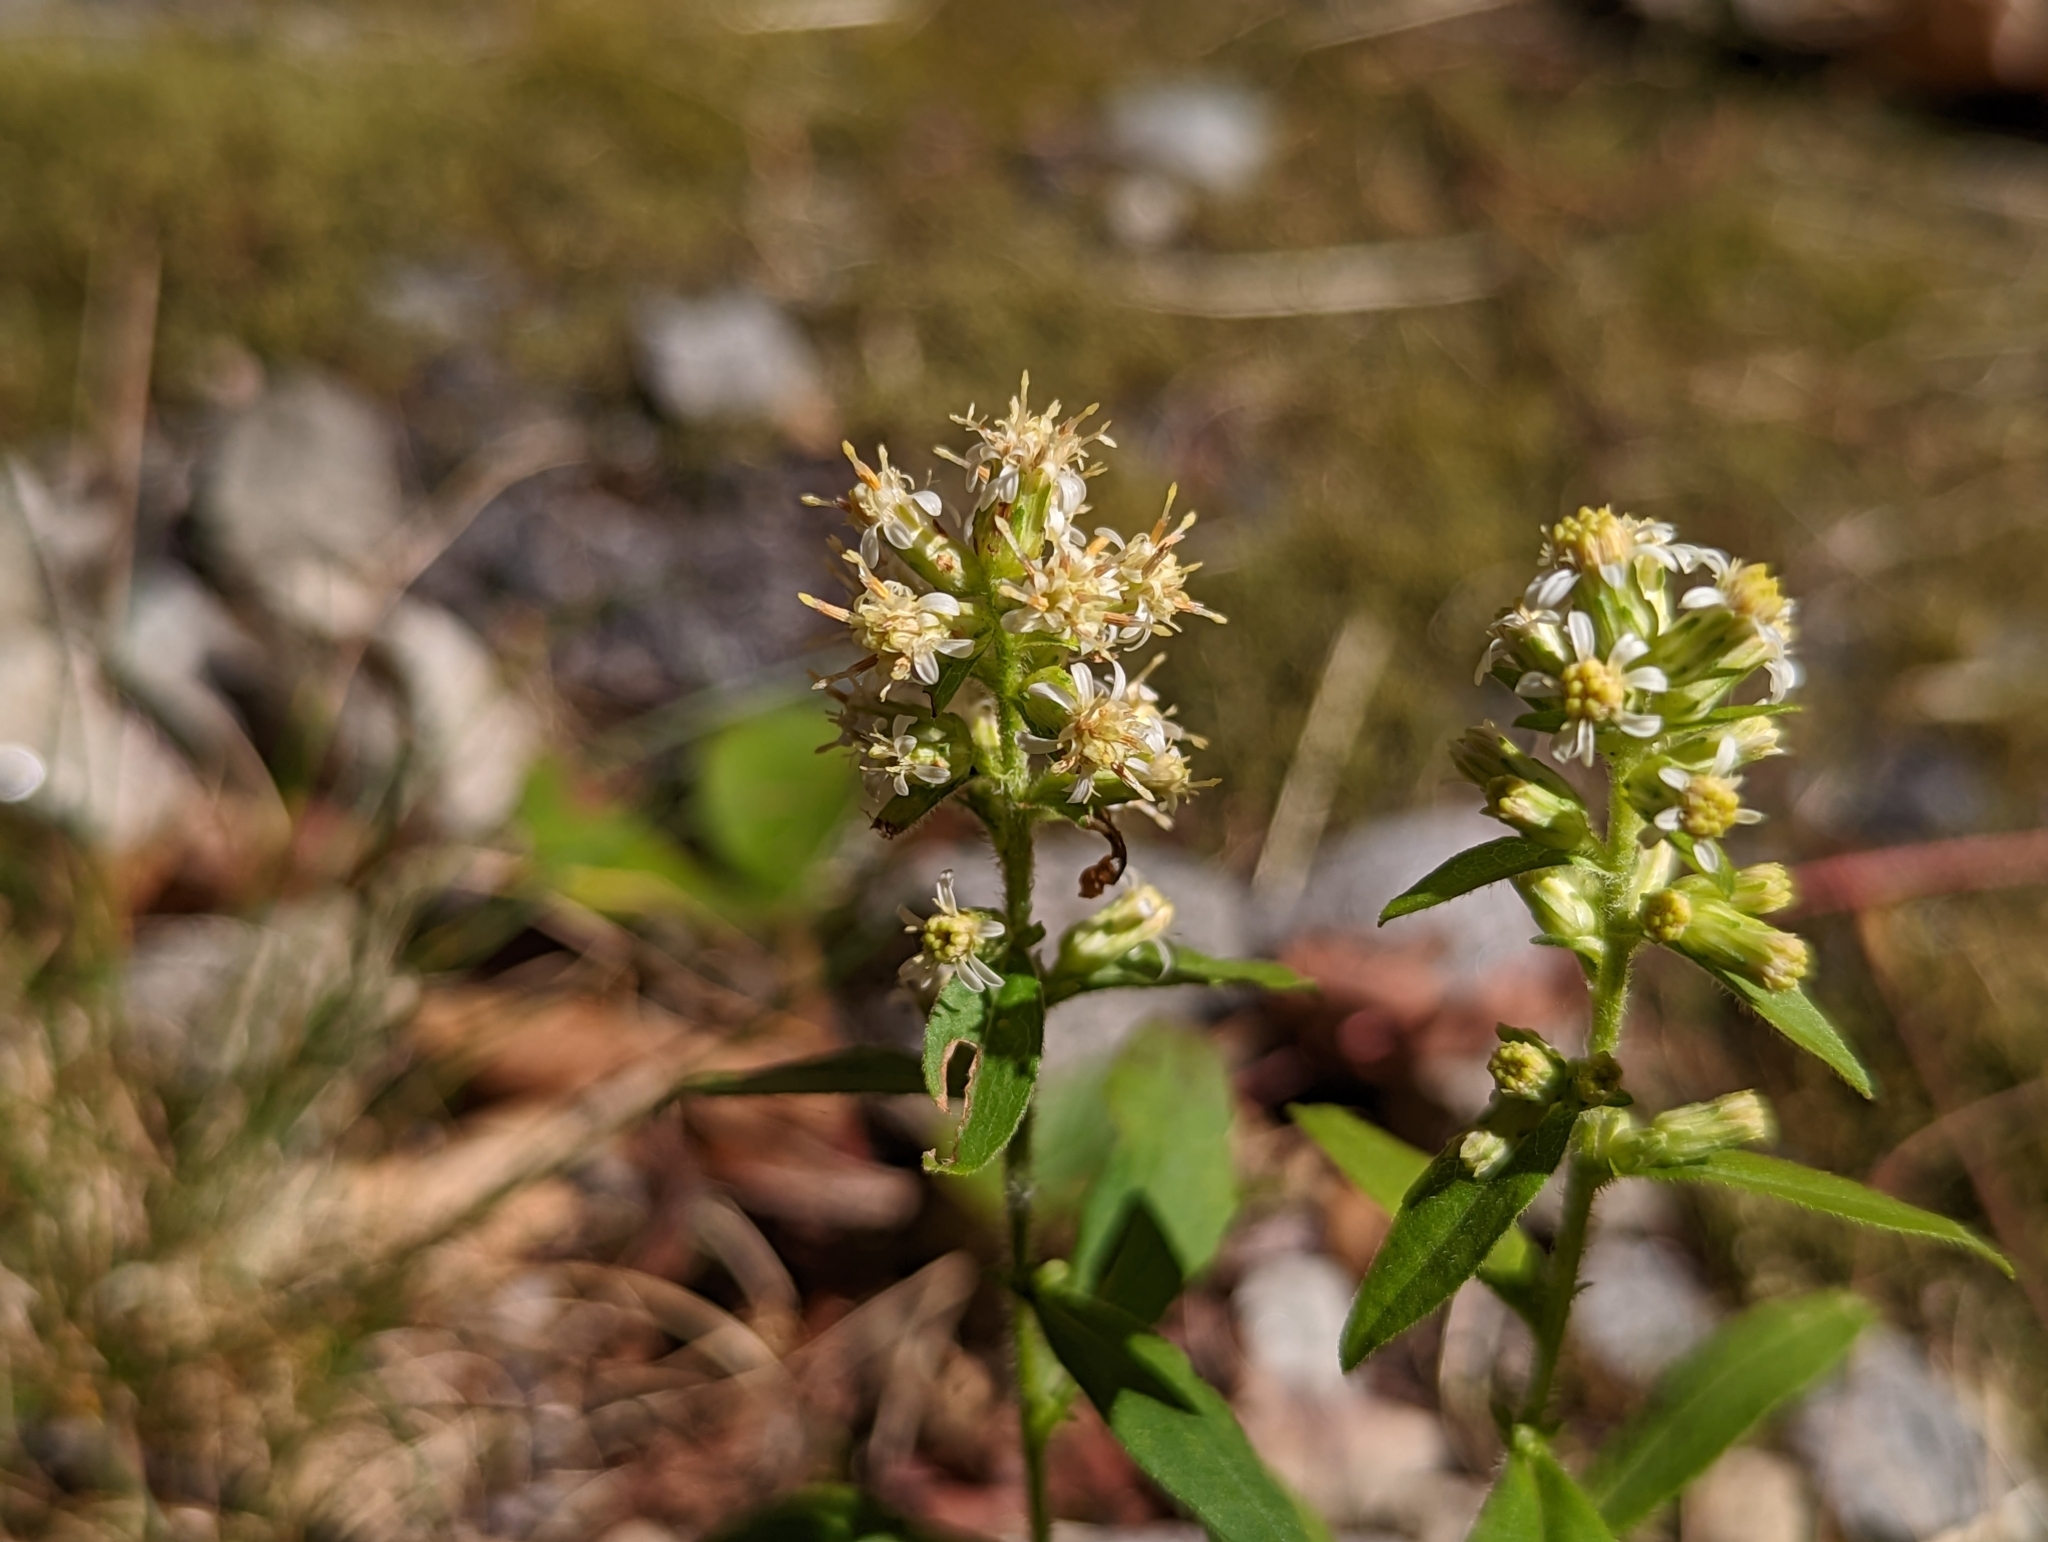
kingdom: Plantae
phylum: Tracheophyta
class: Magnoliopsida
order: Asterales
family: Asteraceae
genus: Solidago
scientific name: Solidago bicolor
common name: Silverrod
